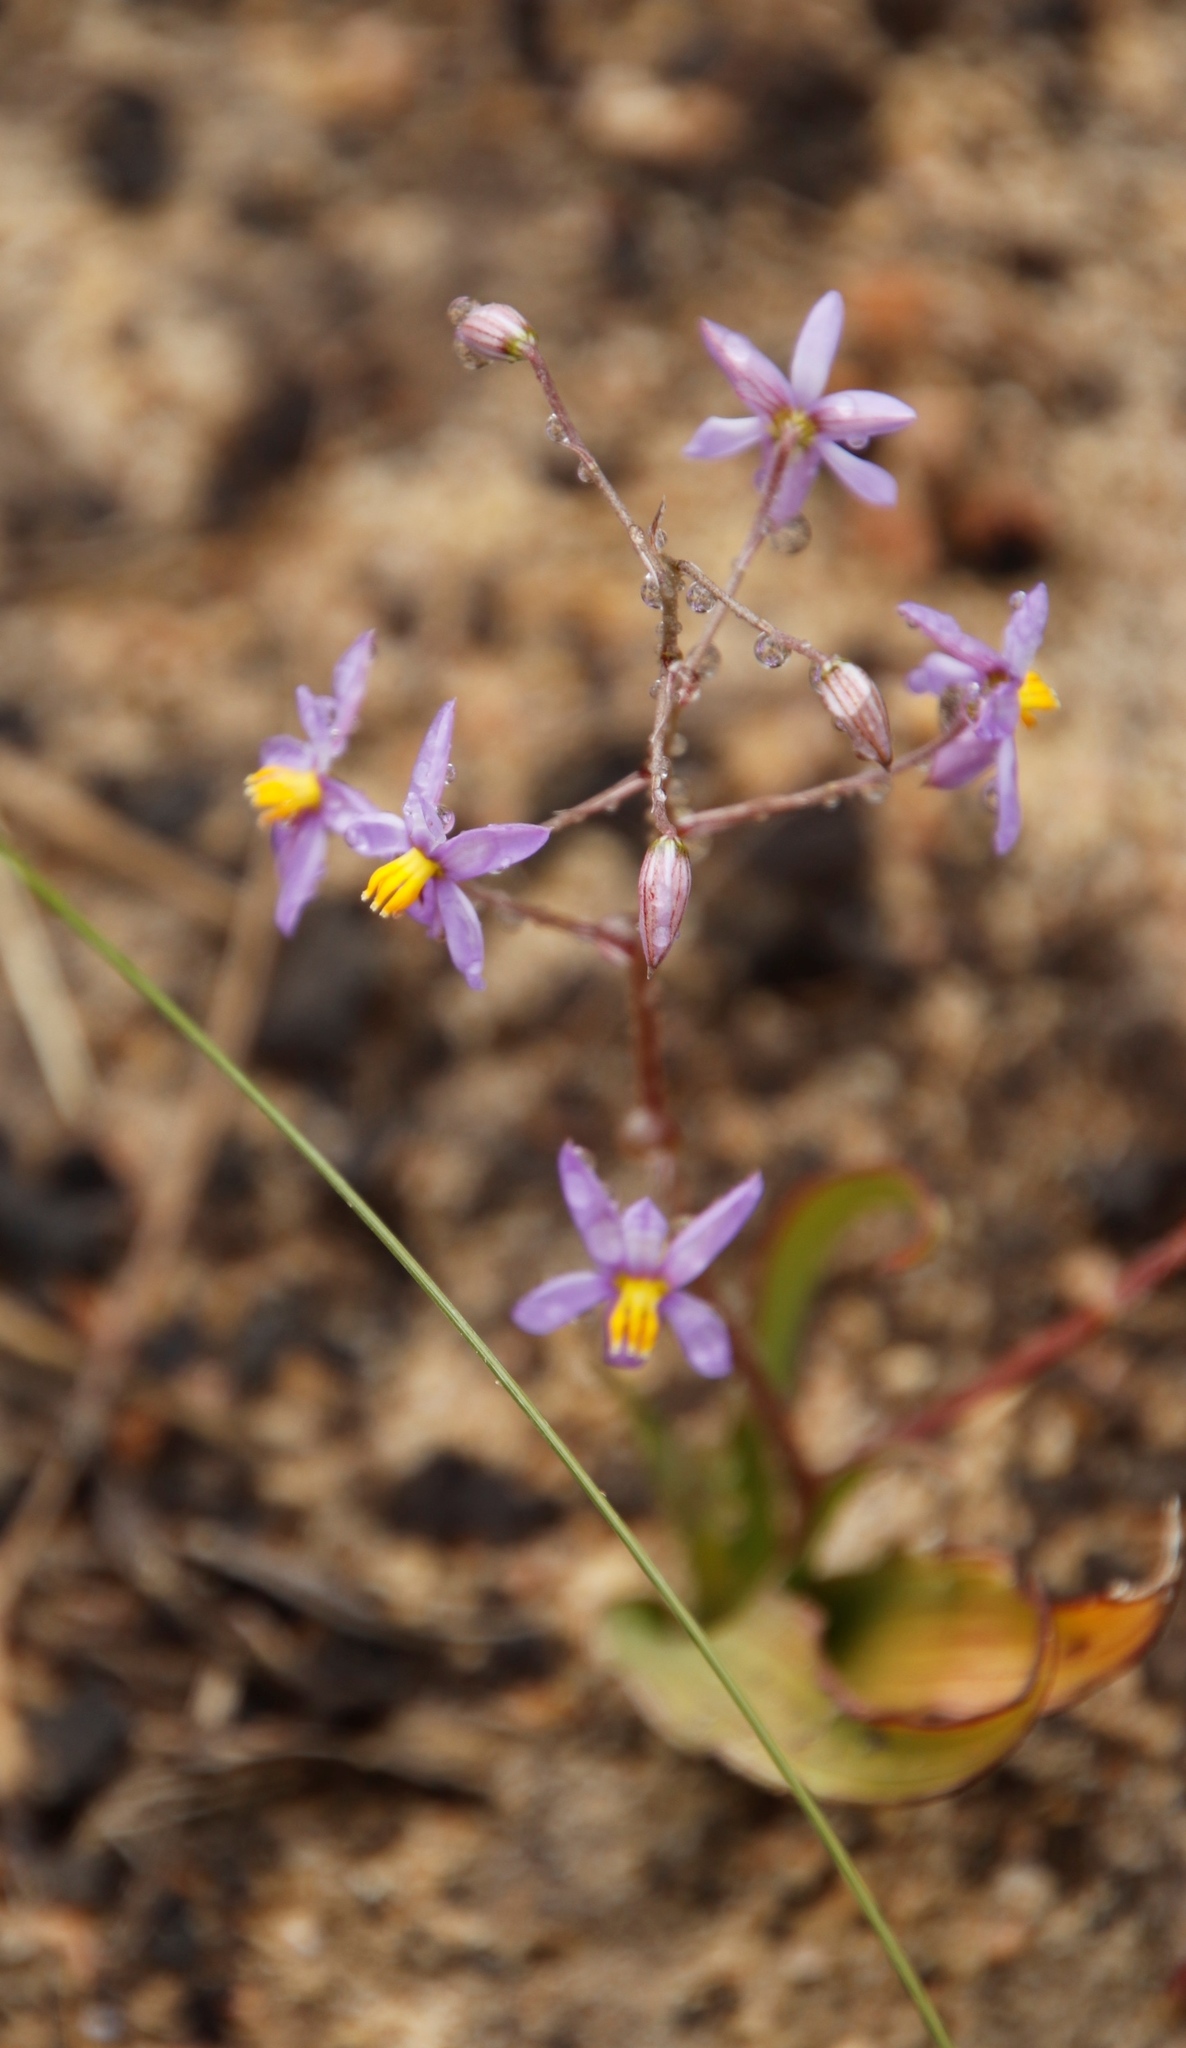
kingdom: Plantae
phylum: Tracheophyta
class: Liliopsida
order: Asparagales
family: Tecophilaeaceae
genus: Cyanella
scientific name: Cyanella hyacinthoides
